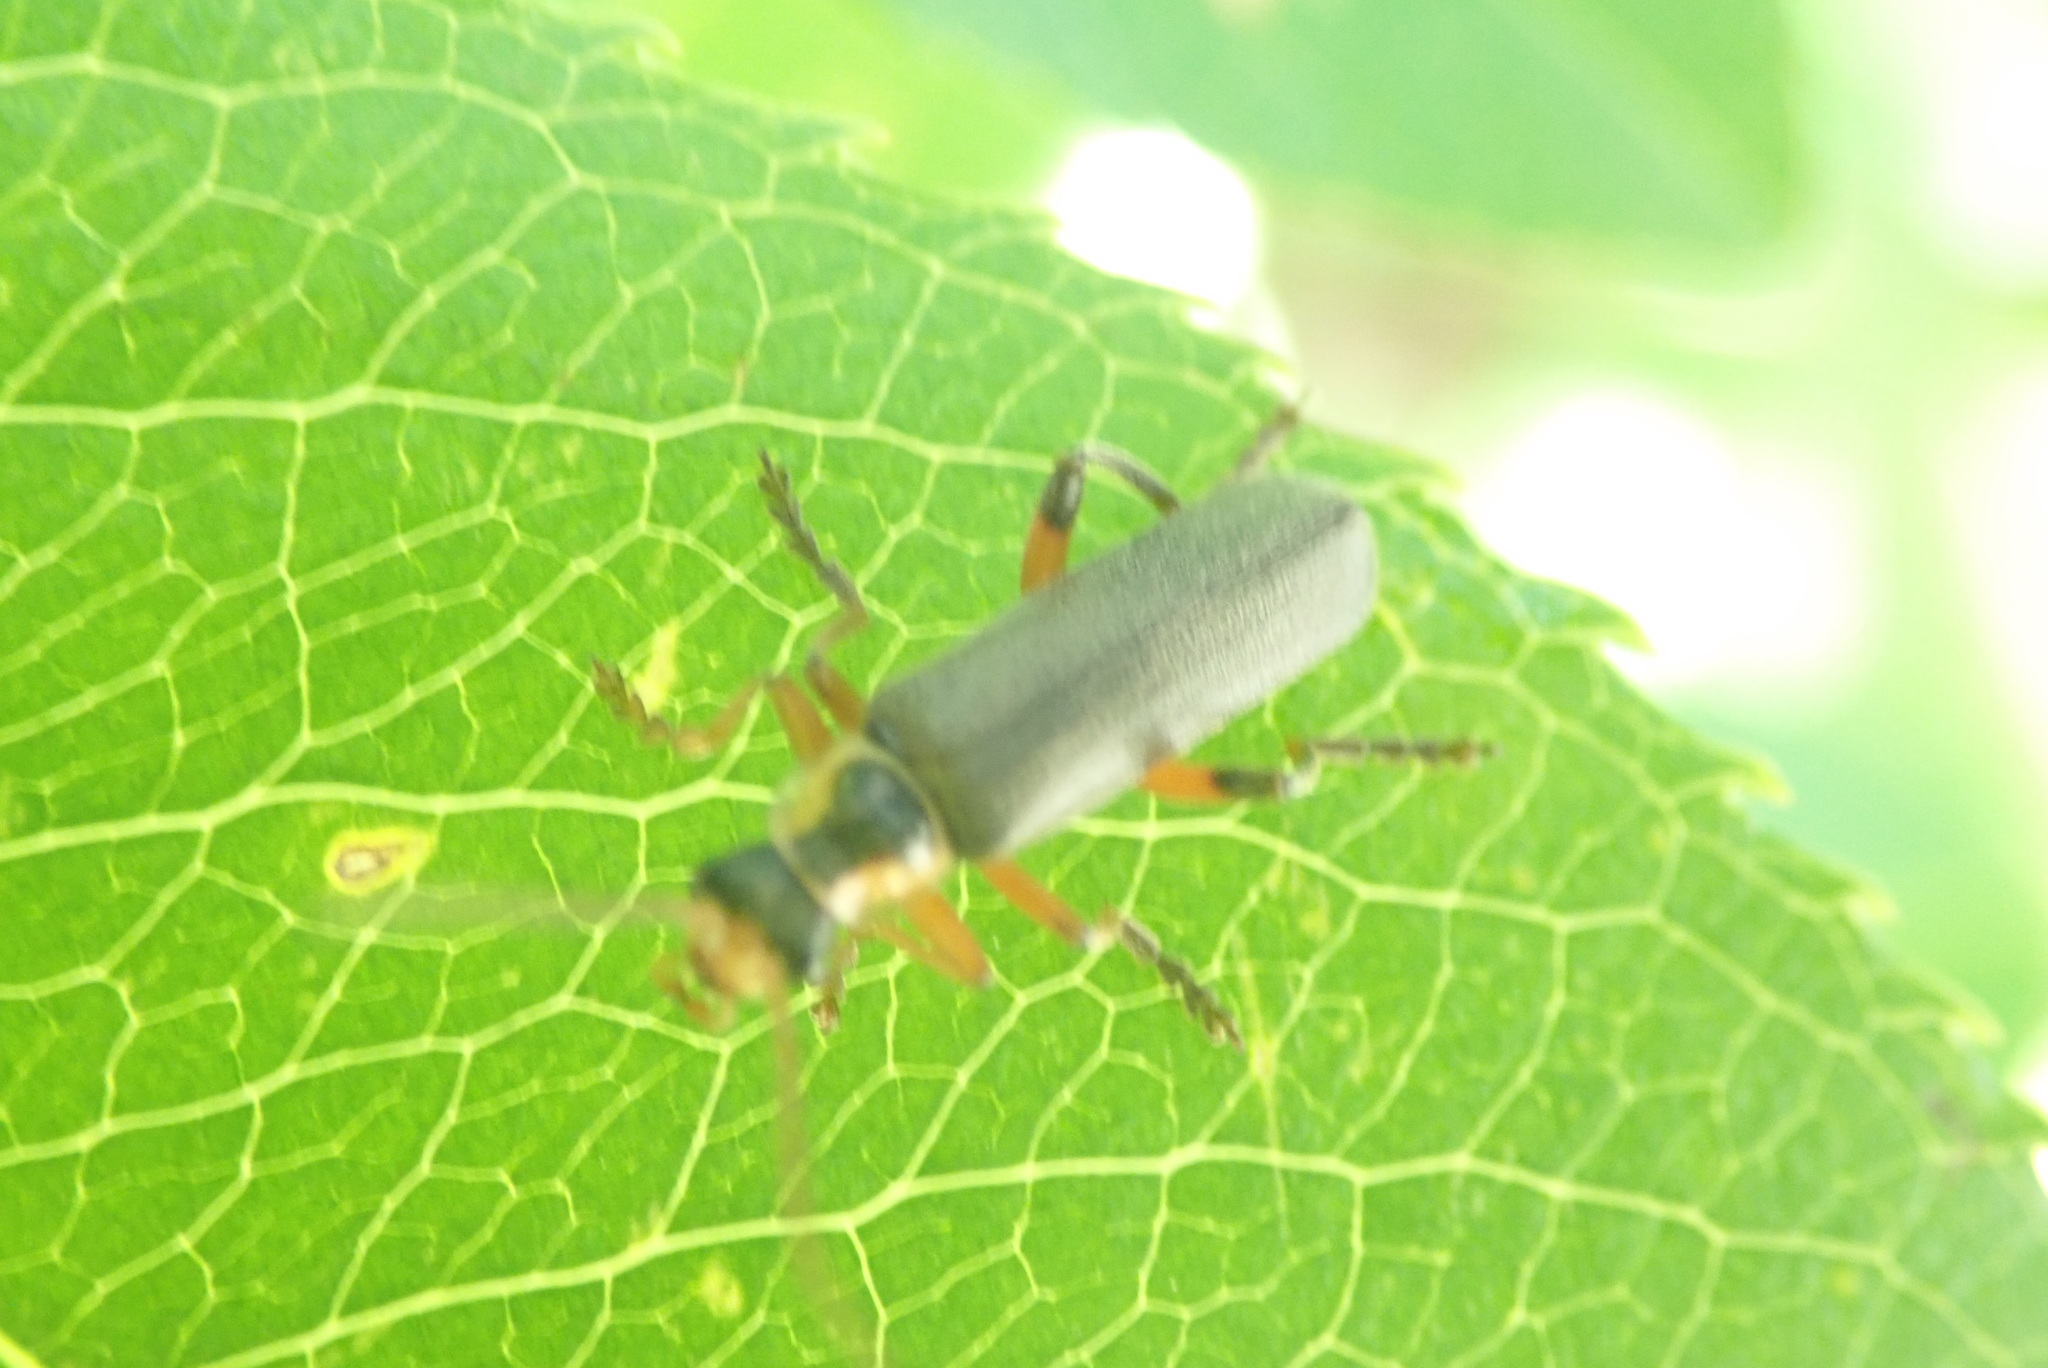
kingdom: Animalia
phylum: Arthropoda
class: Insecta
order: Coleoptera
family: Cantharidae
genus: Cantharis
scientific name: Cantharis nigricans
